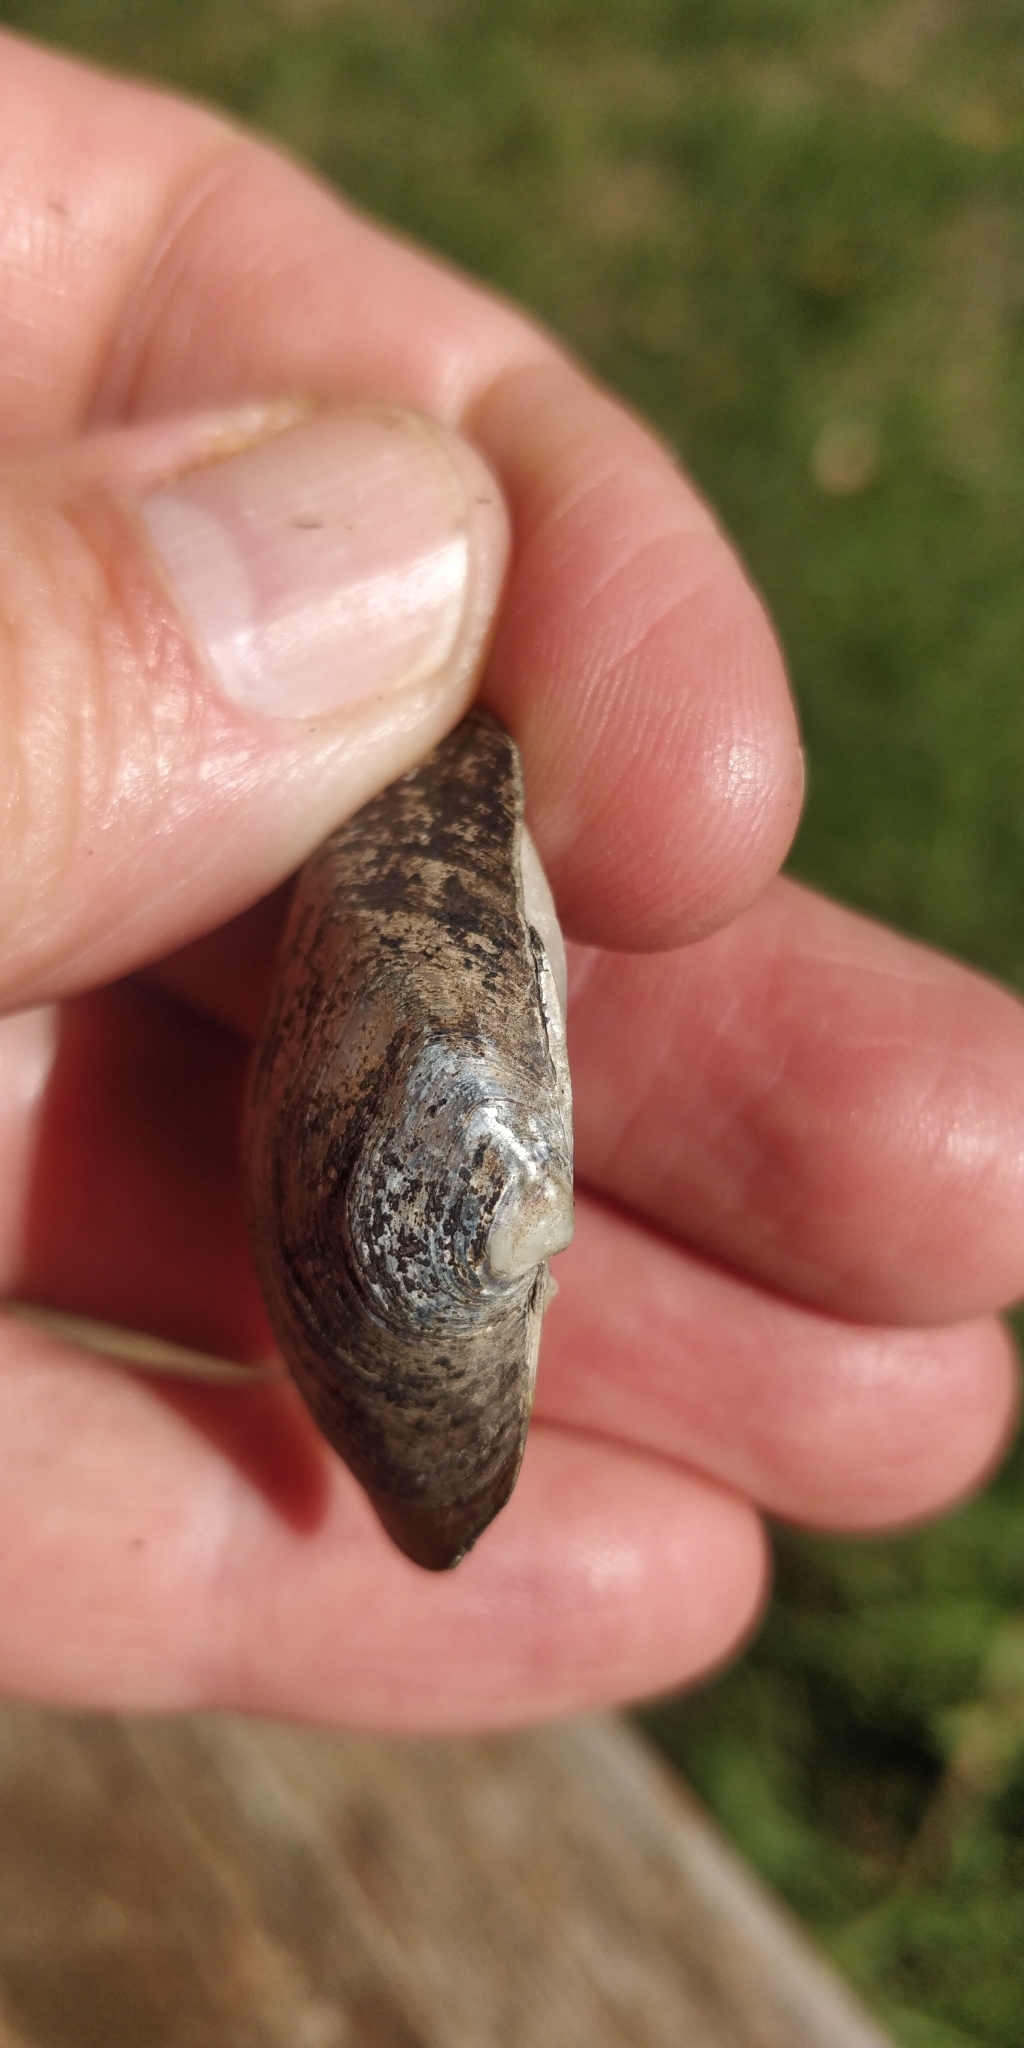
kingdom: Animalia
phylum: Mollusca
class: Bivalvia
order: Unionida
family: Unionidae
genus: Fusconaia
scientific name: Fusconaia flava
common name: Wabash pigtoe
